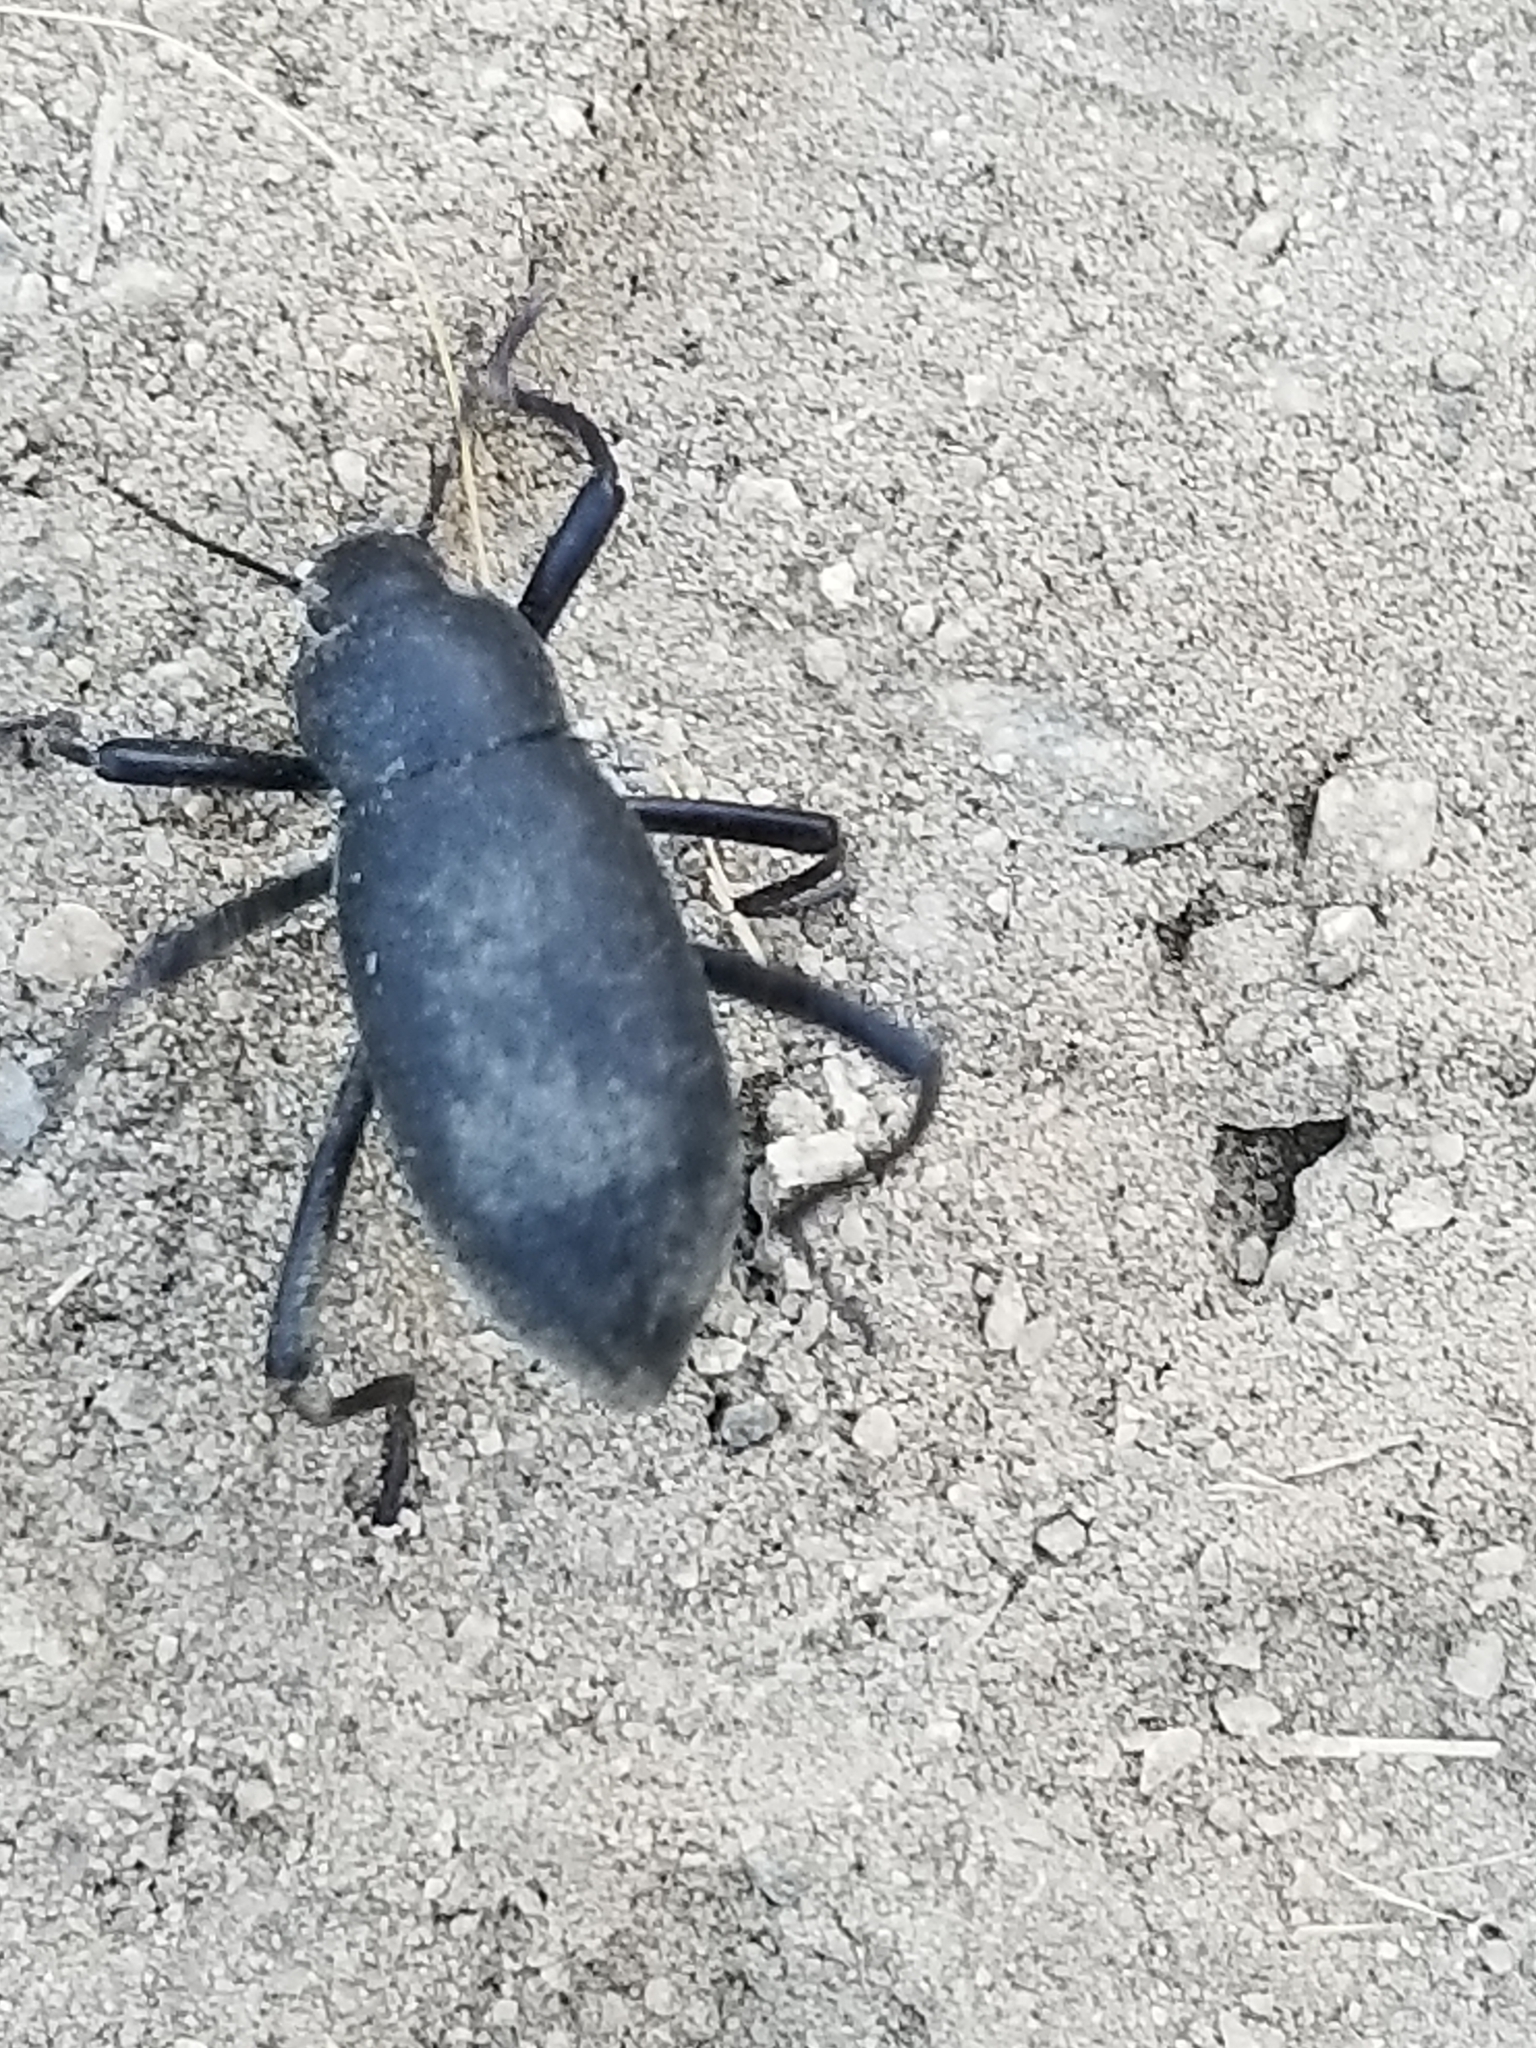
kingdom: Animalia
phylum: Arthropoda
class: Insecta
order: Coleoptera
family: Tenebrionidae
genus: Eleodes
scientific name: Eleodes subcylindrica
